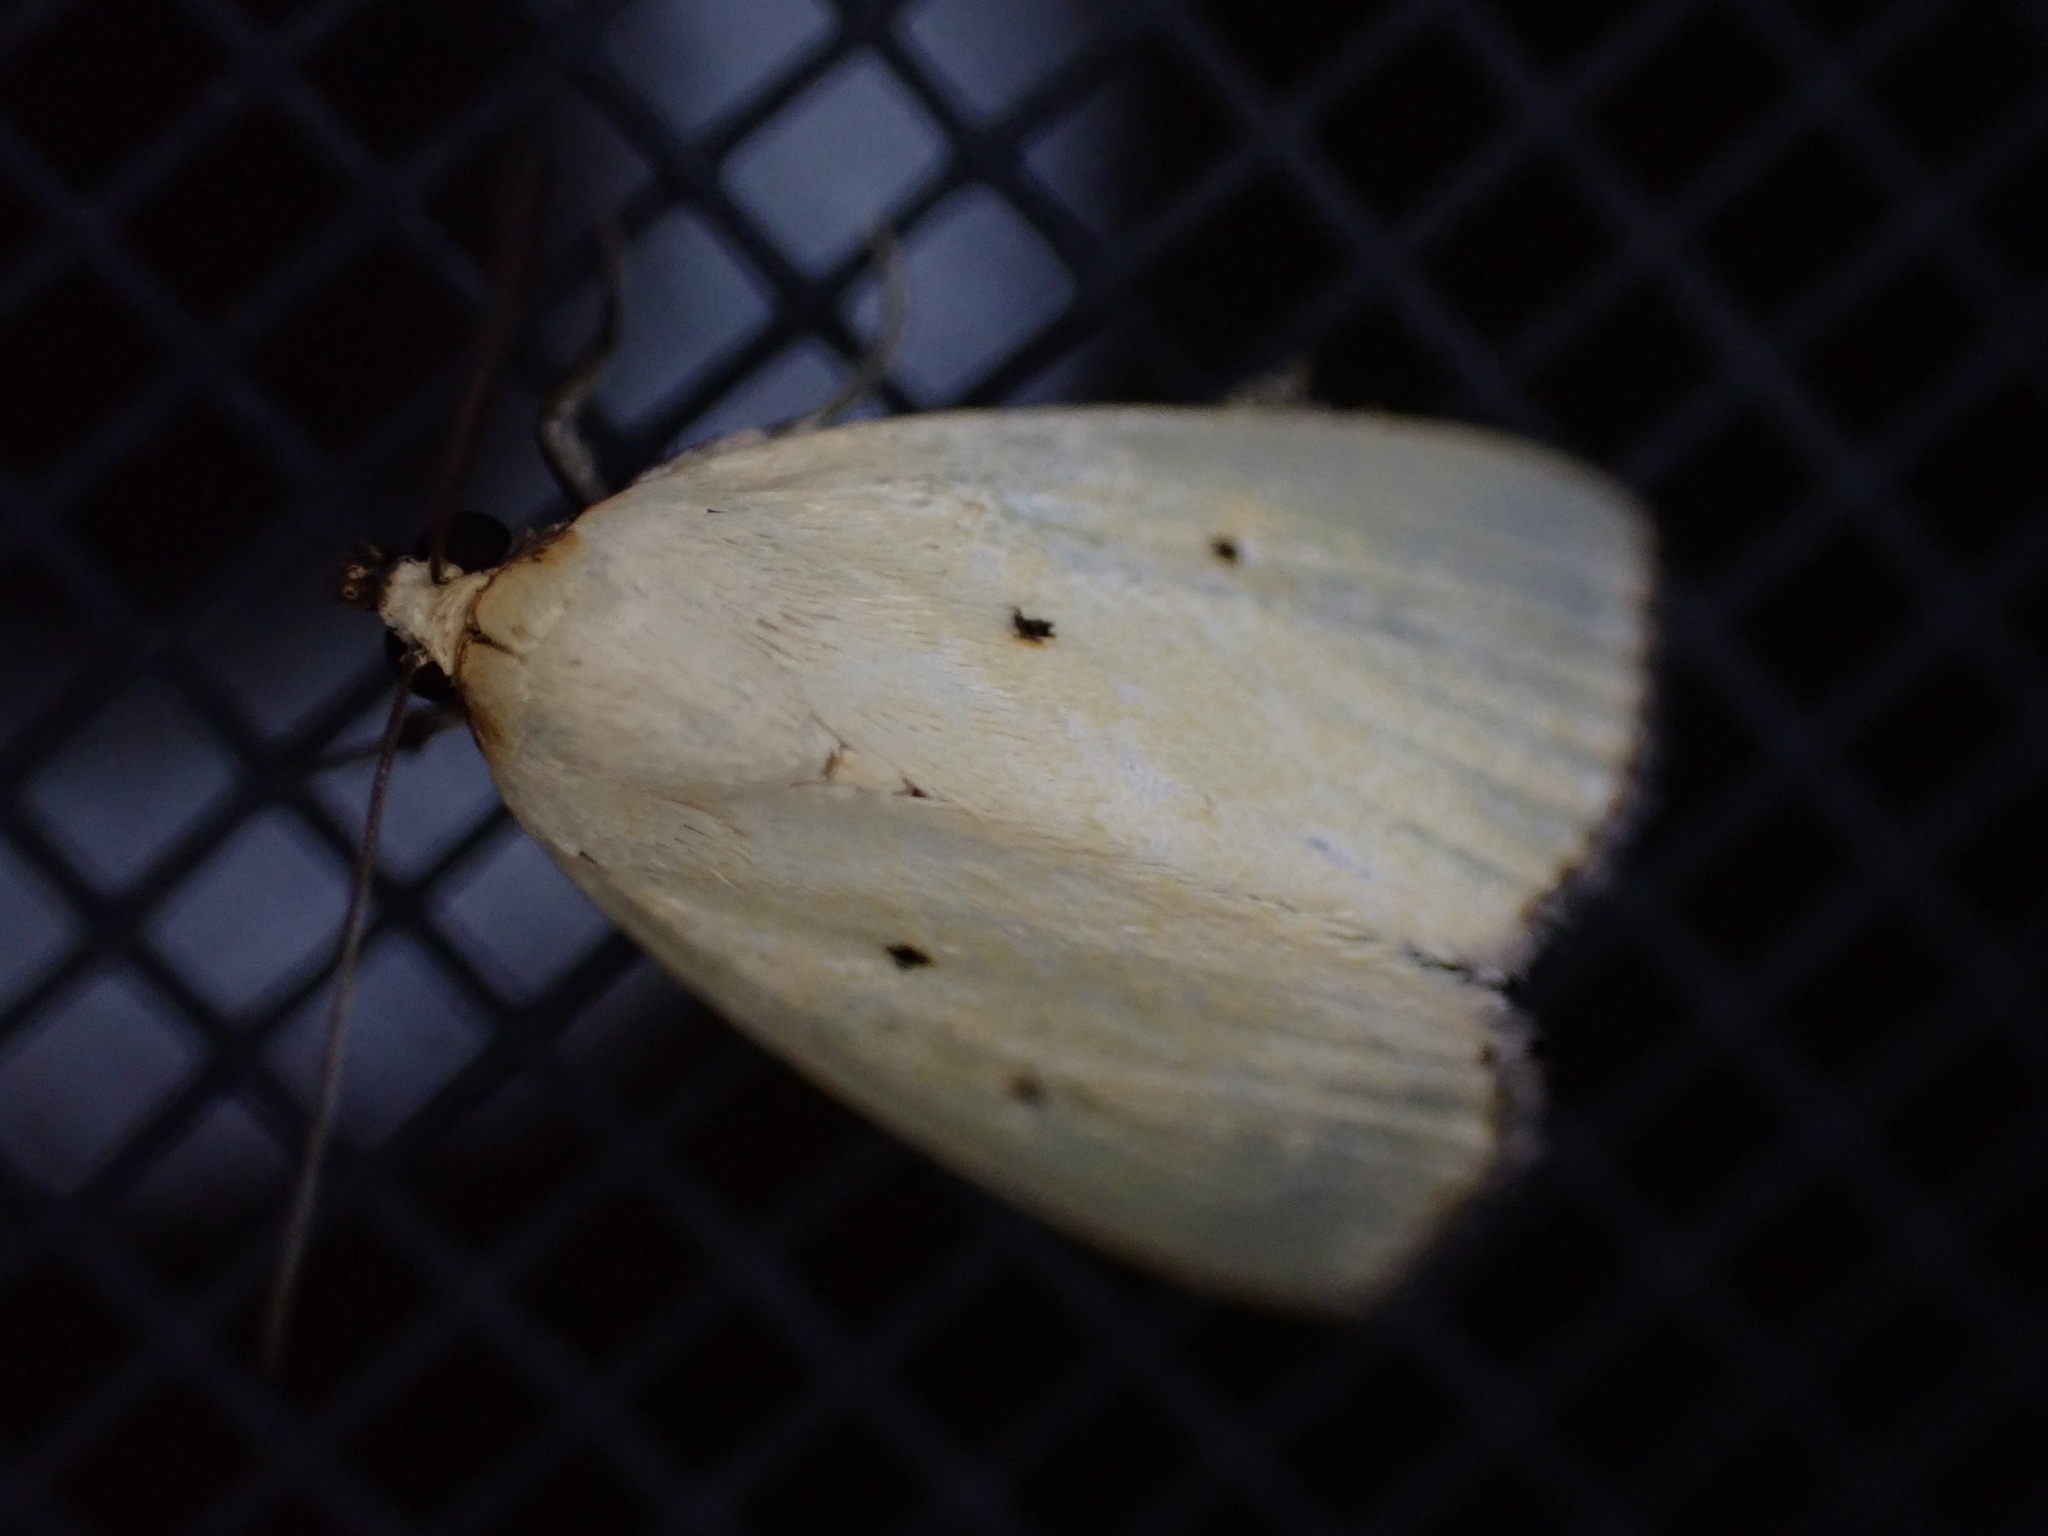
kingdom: Animalia
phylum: Arthropoda
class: Insecta
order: Lepidoptera
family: Noctuidae
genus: Marimatha
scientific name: Marimatha nigrofimbria
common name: Black-bordered lemon moth
